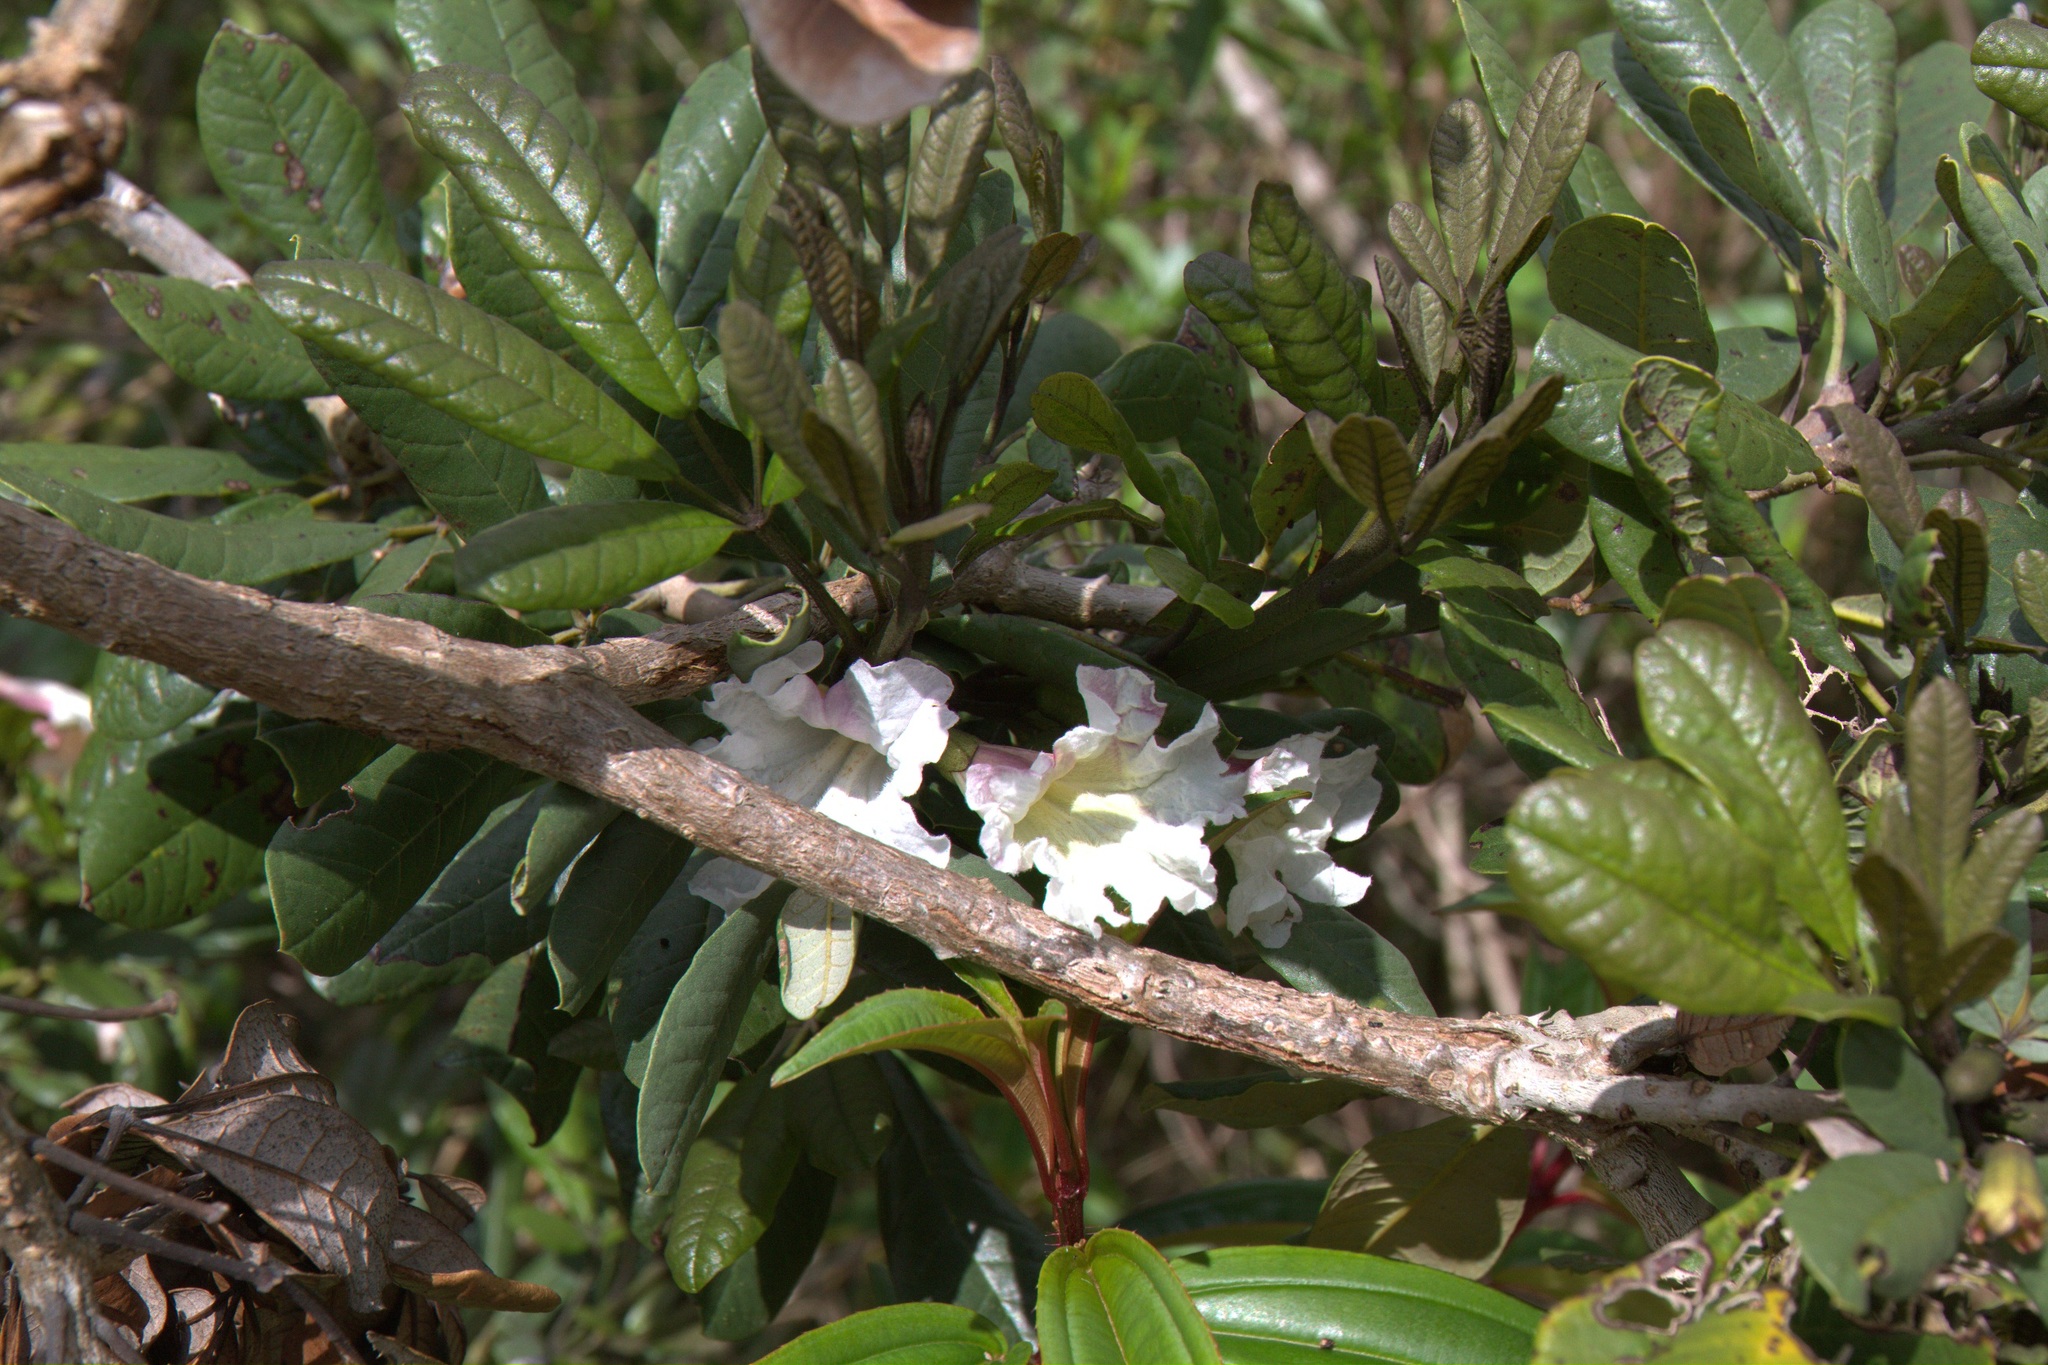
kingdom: Plantae
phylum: Tracheophyta
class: Magnoliopsida
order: Lamiales
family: Bignoniaceae
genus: Tabebuia
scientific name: Tabebuia berteroi
